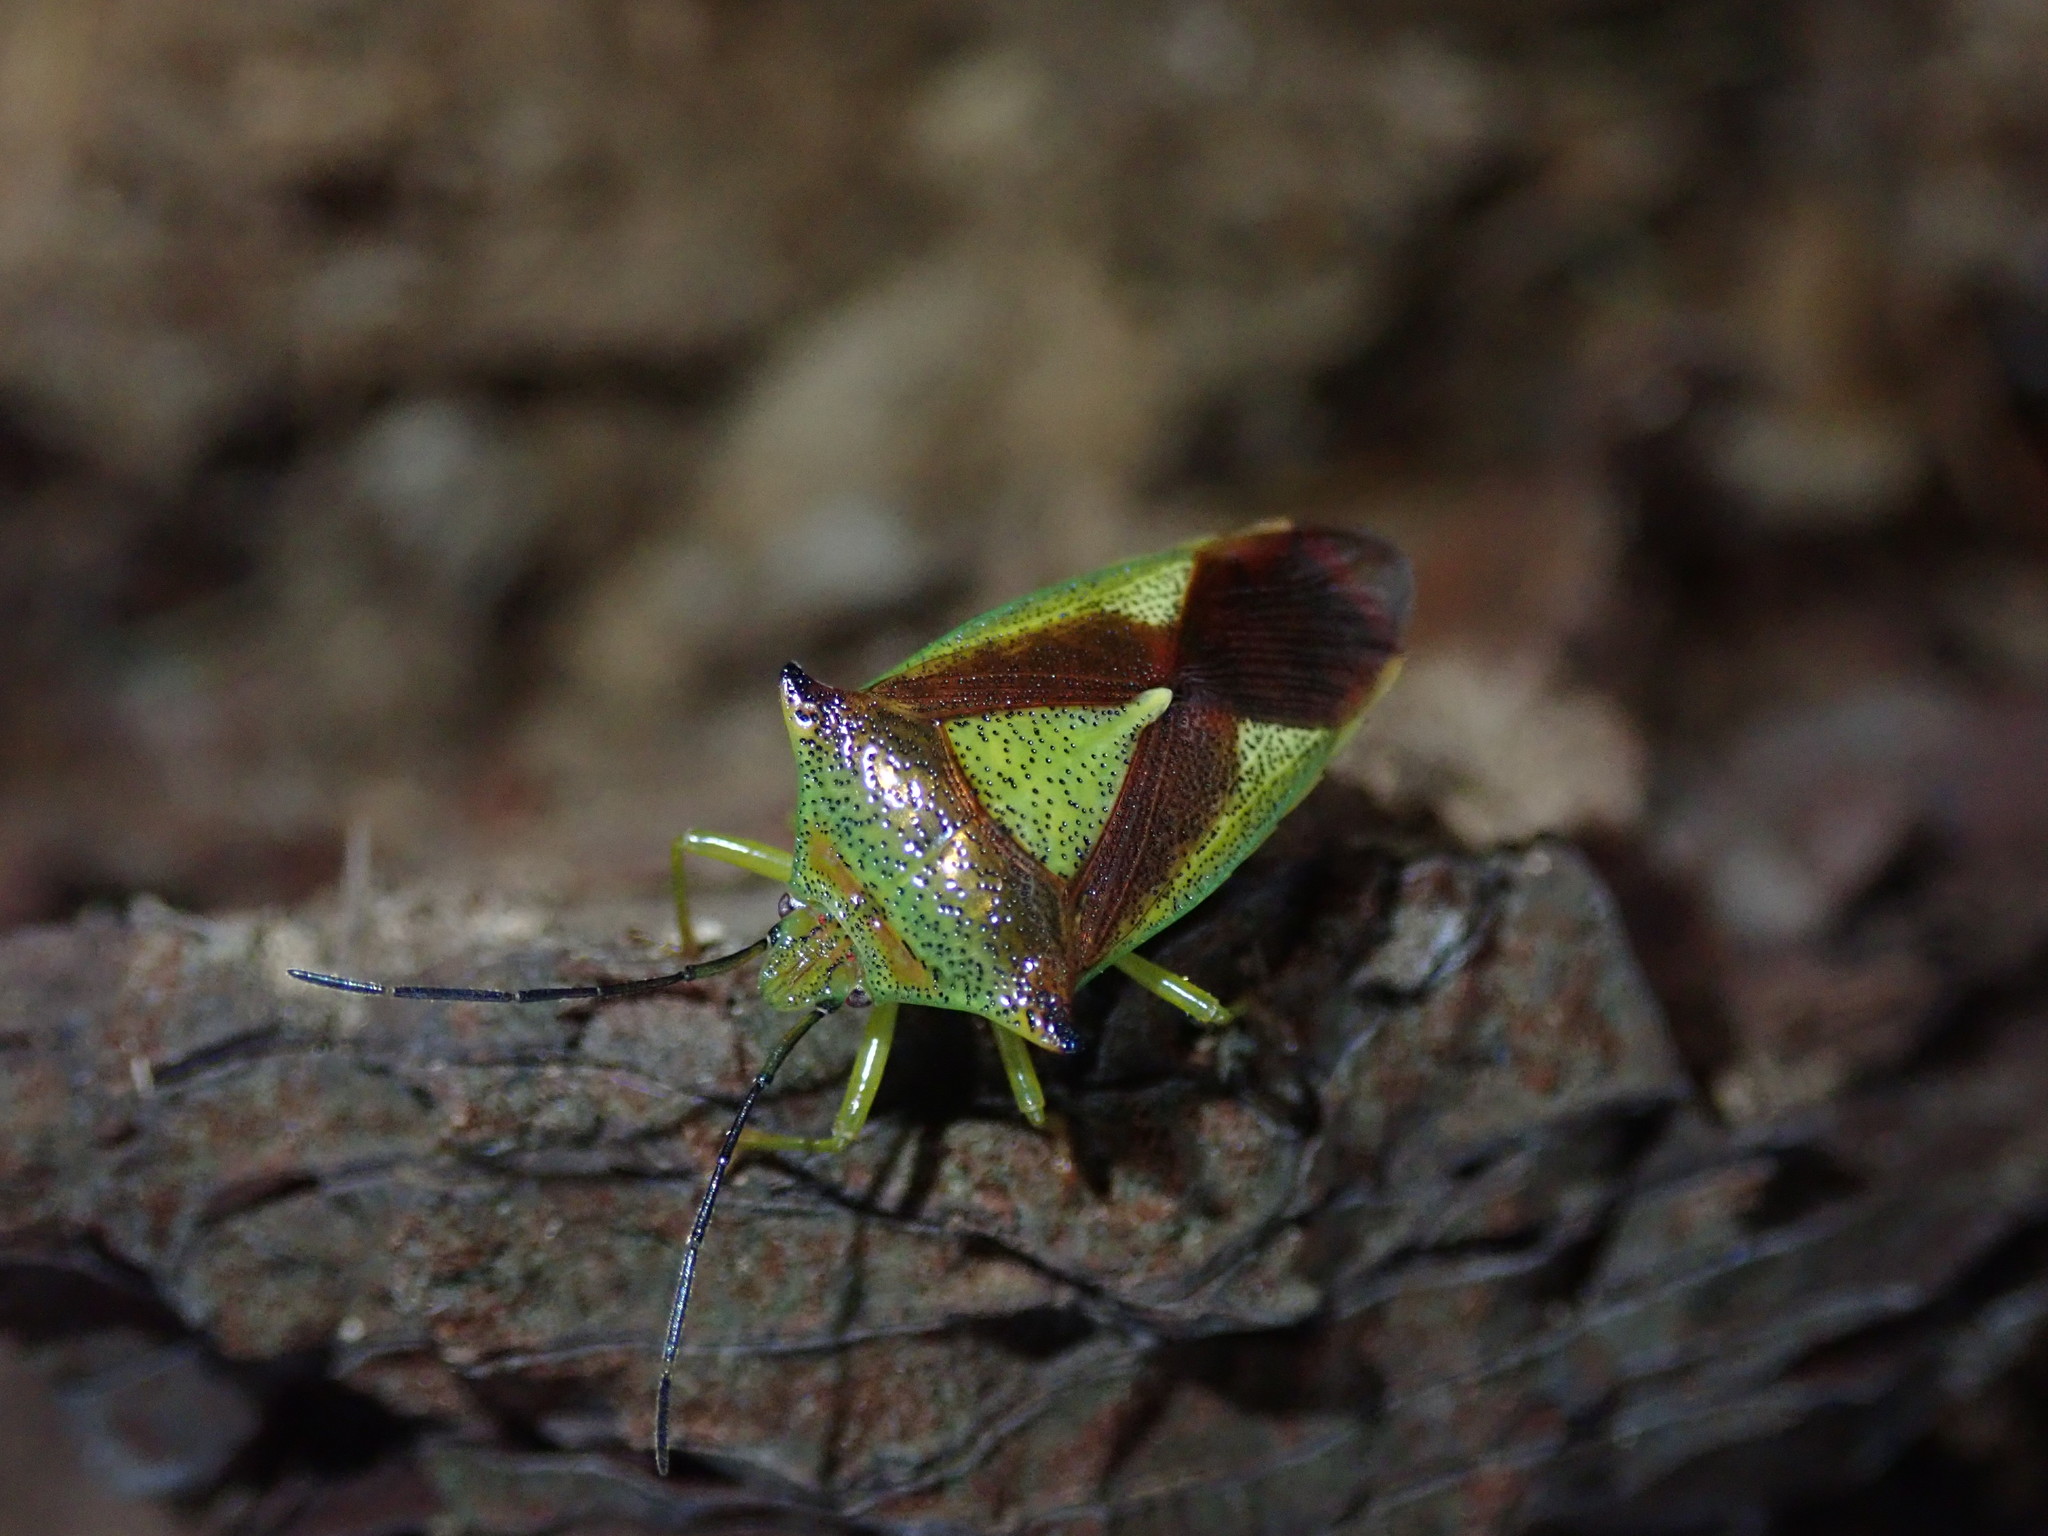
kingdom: Animalia
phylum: Arthropoda
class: Insecta
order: Hemiptera
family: Acanthosomatidae
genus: Acanthosoma
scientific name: Acanthosoma haemorrhoidale
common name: Hawthorn shieldbug
